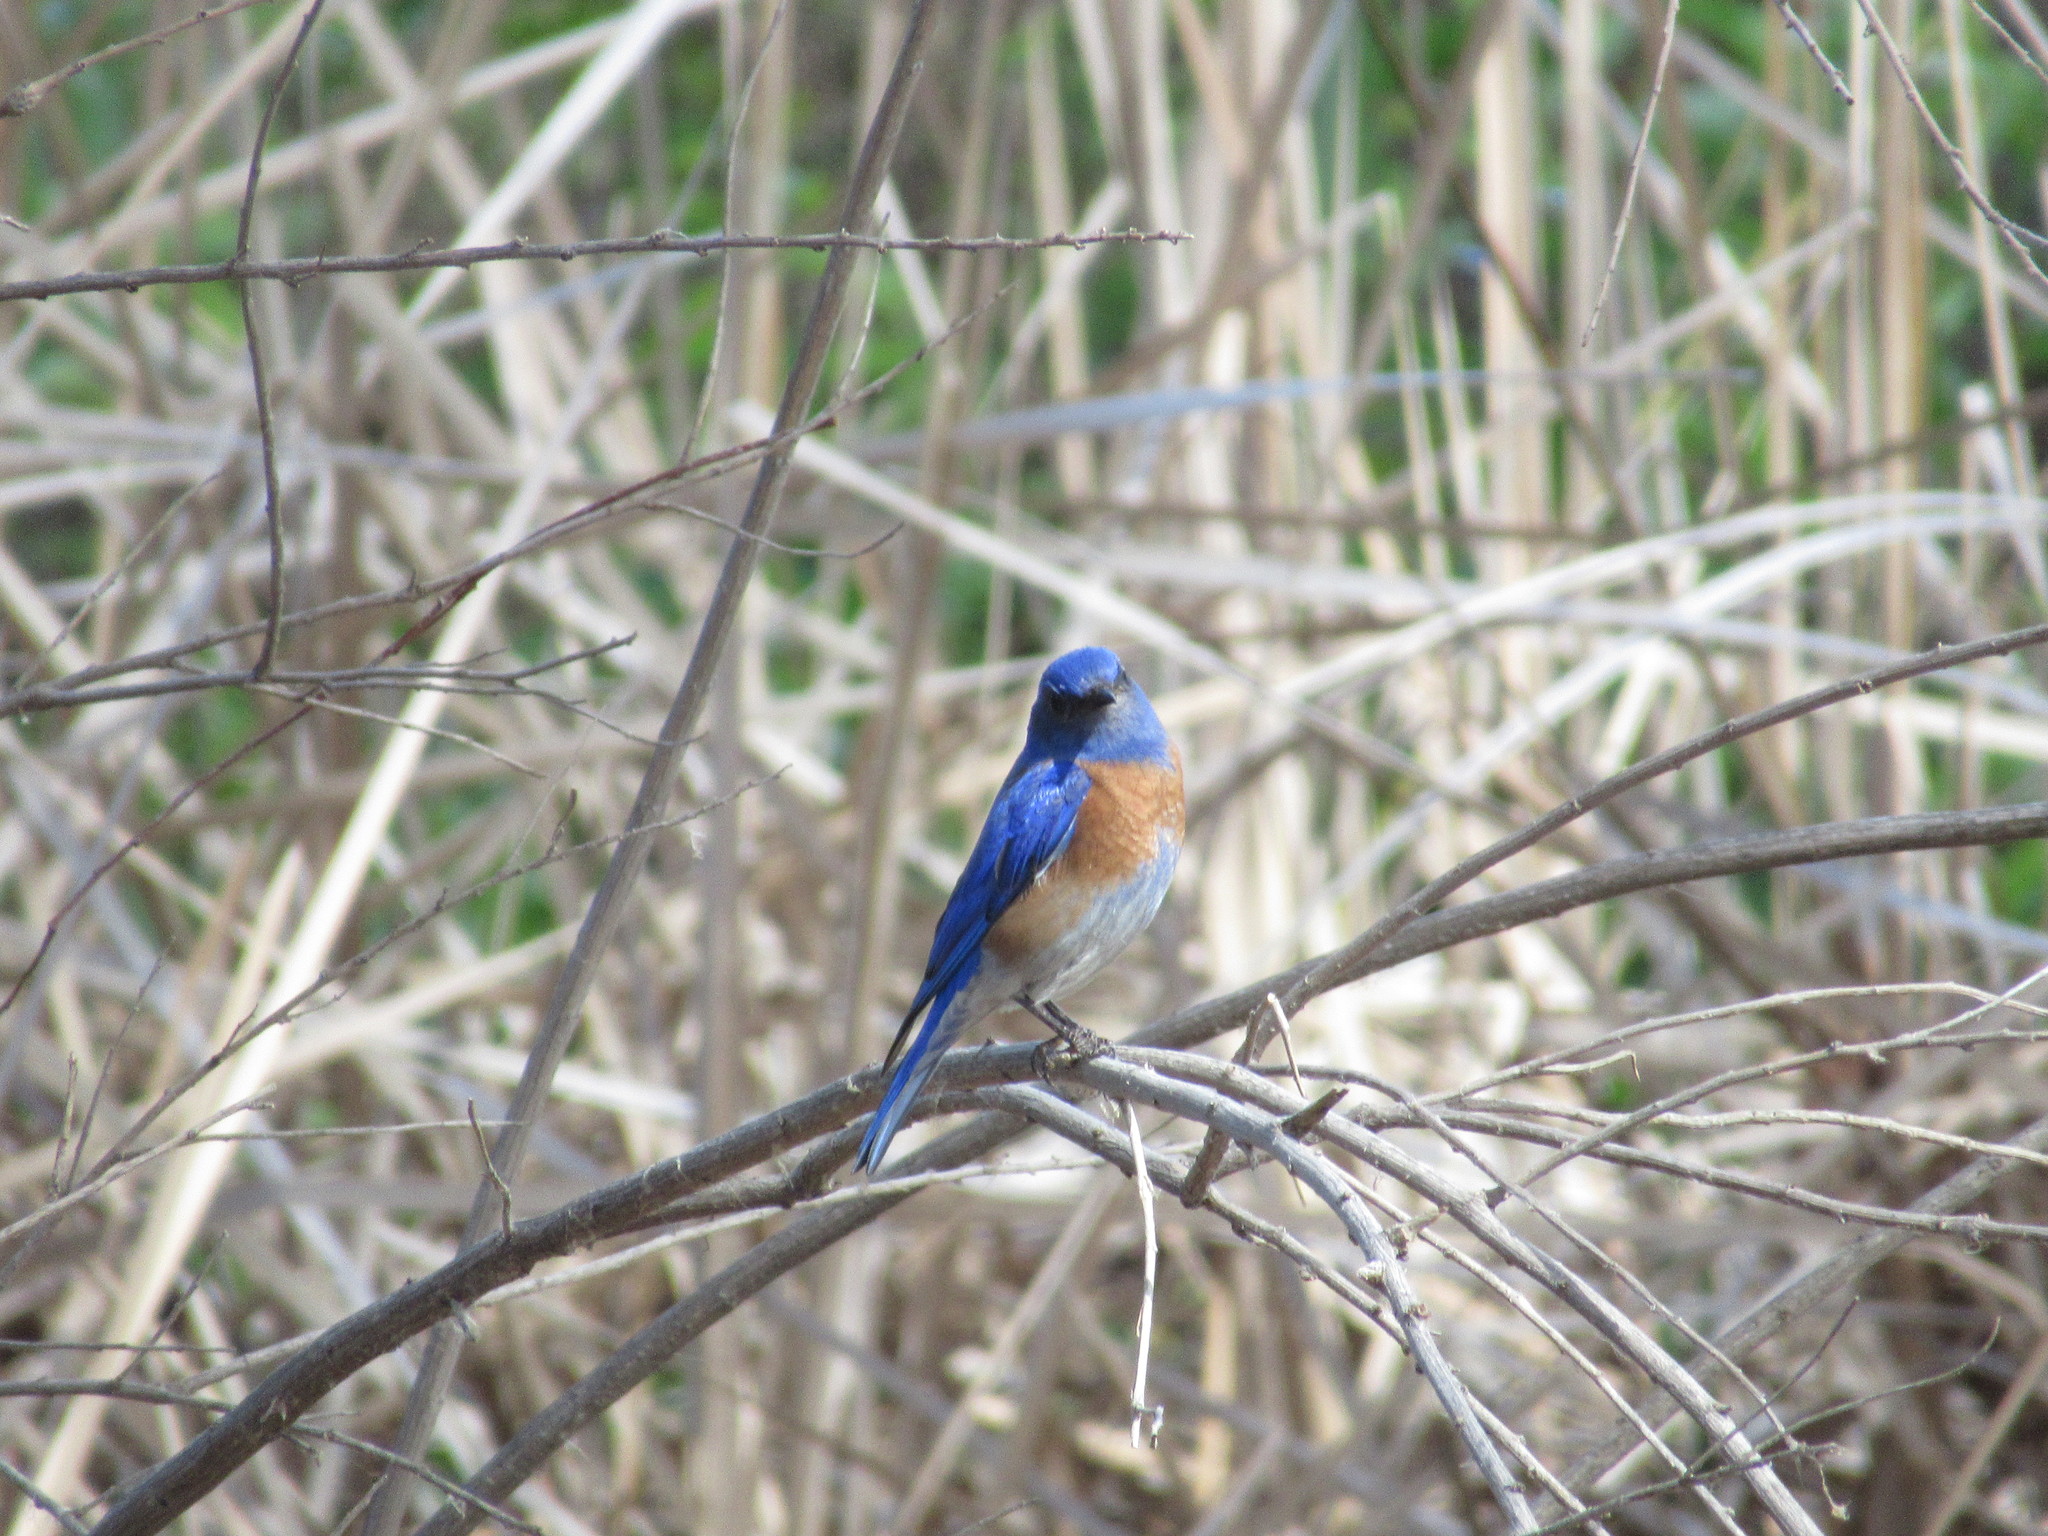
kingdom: Animalia
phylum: Chordata
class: Aves
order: Passeriformes
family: Turdidae
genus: Sialia
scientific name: Sialia mexicana
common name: Western bluebird
